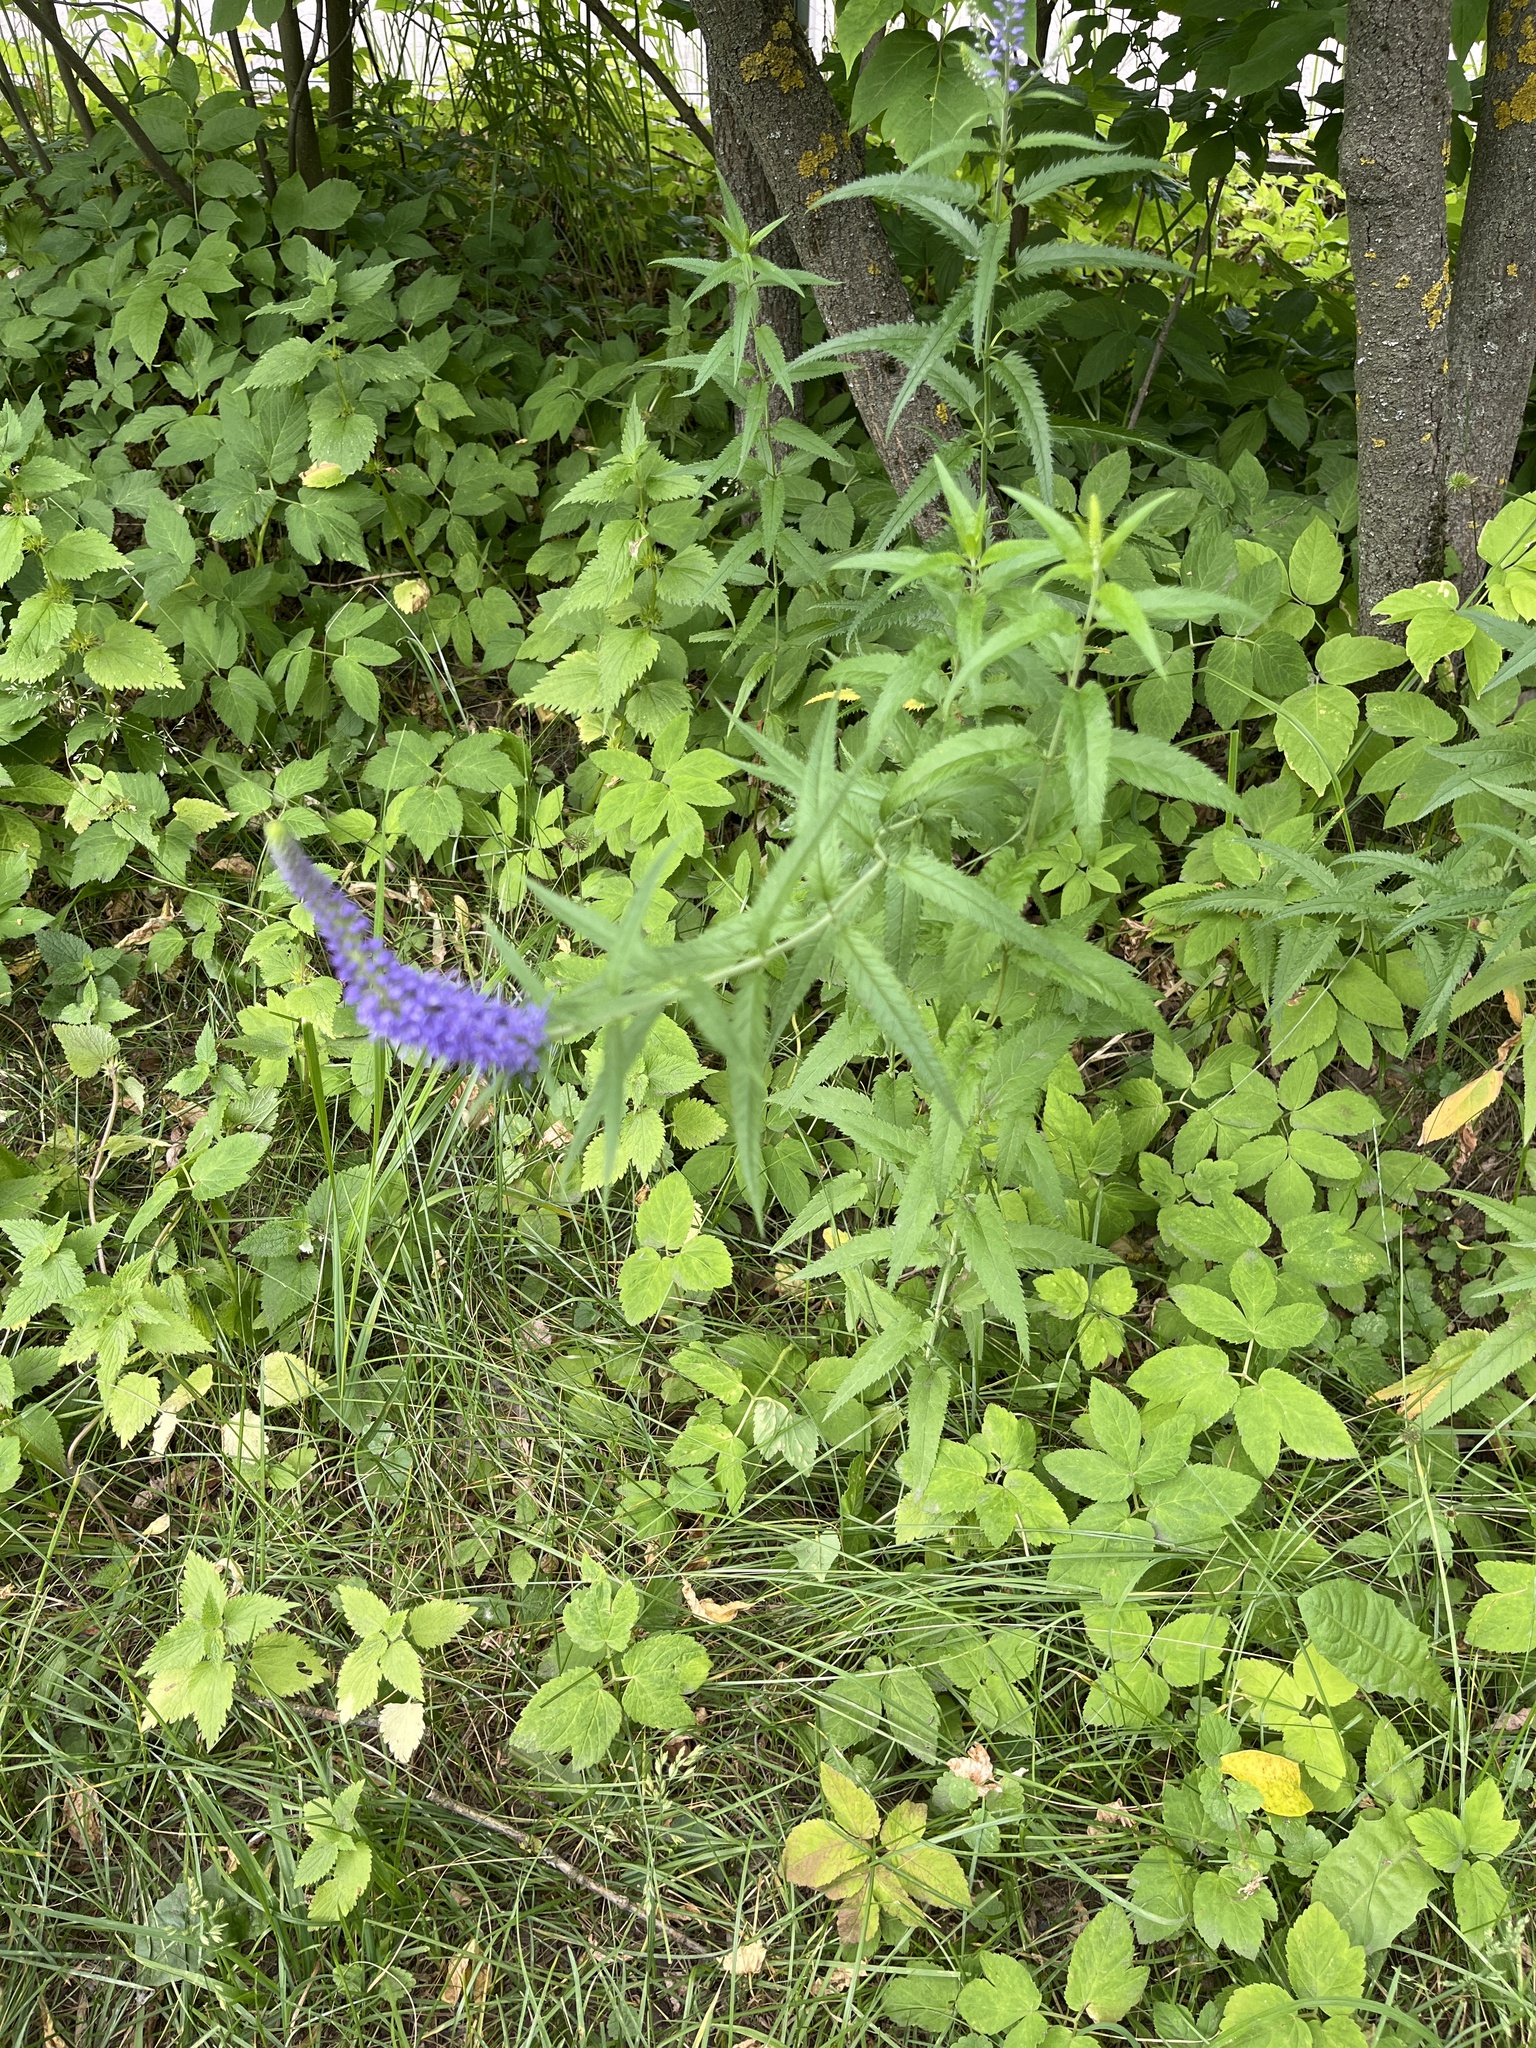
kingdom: Plantae
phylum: Tracheophyta
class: Magnoliopsida
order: Lamiales
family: Plantaginaceae
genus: Veronica
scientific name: Veronica longifolia
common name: Garden speedwell
